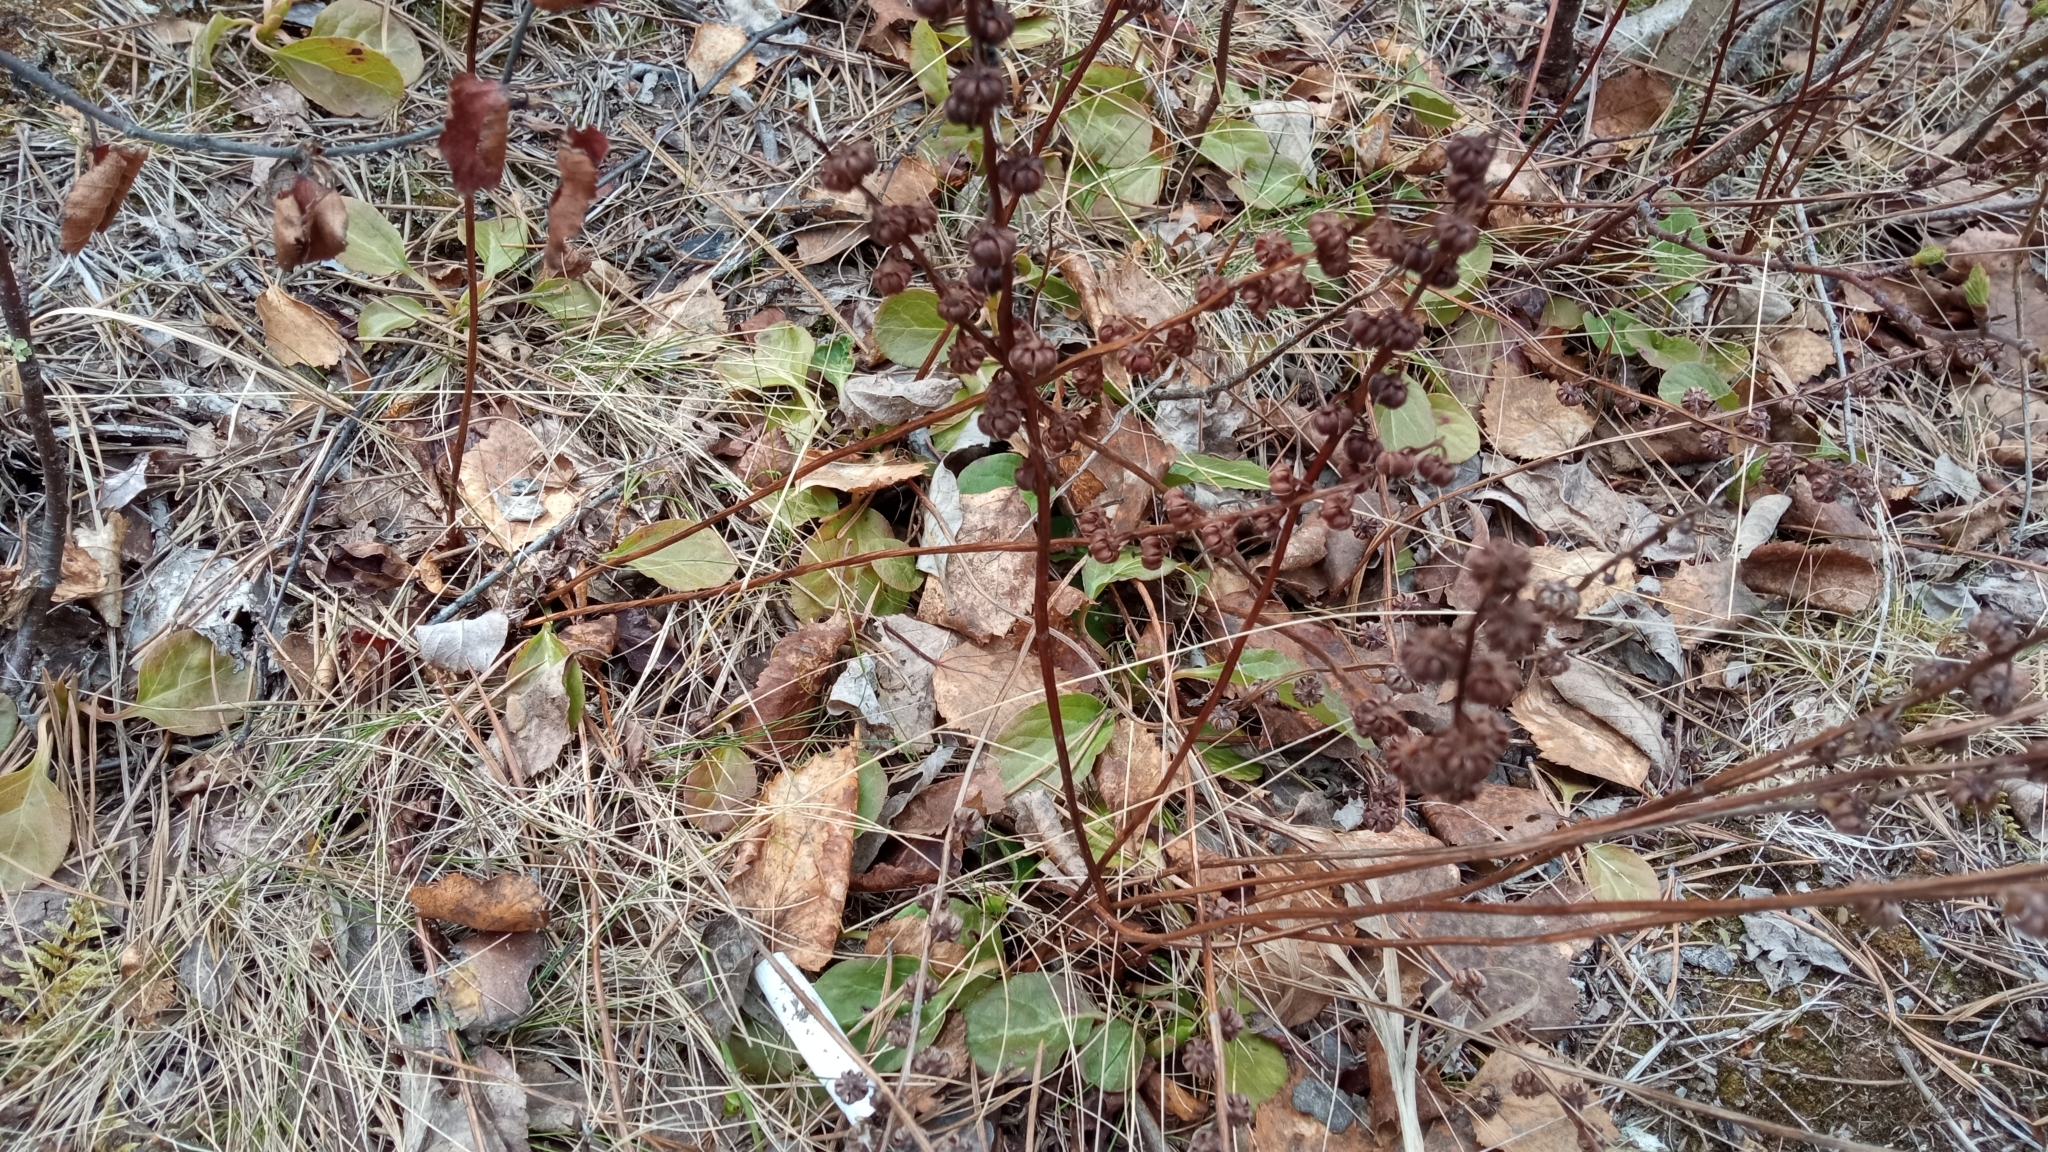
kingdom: Plantae
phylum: Tracheophyta
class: Magnoliopsida
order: Ericales
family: Ericaceae
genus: Pyrola
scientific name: Pyrola asarifolia
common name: Bog wintergreen
